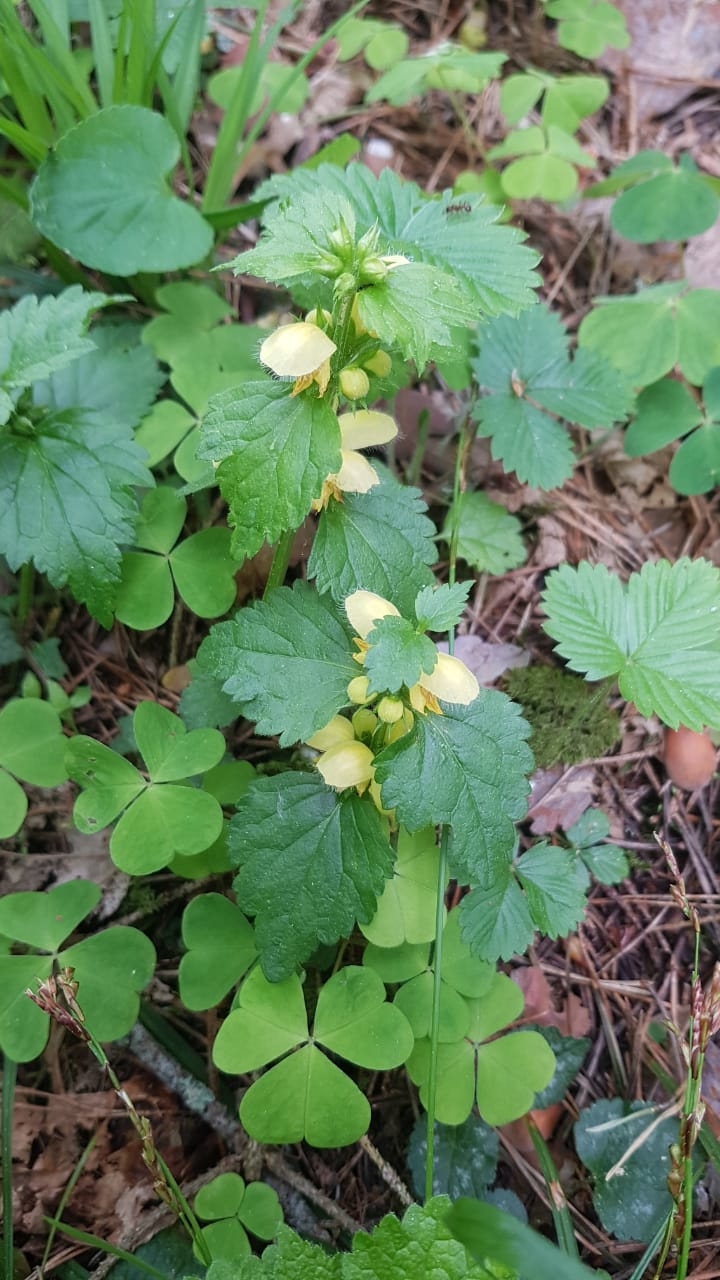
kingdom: Plantae
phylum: Tracheophyta
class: Magnoliopsida
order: Lamiales
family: Lamiaceae
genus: Lamium
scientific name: Lamium galeobdolon
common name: Yellow archangel
